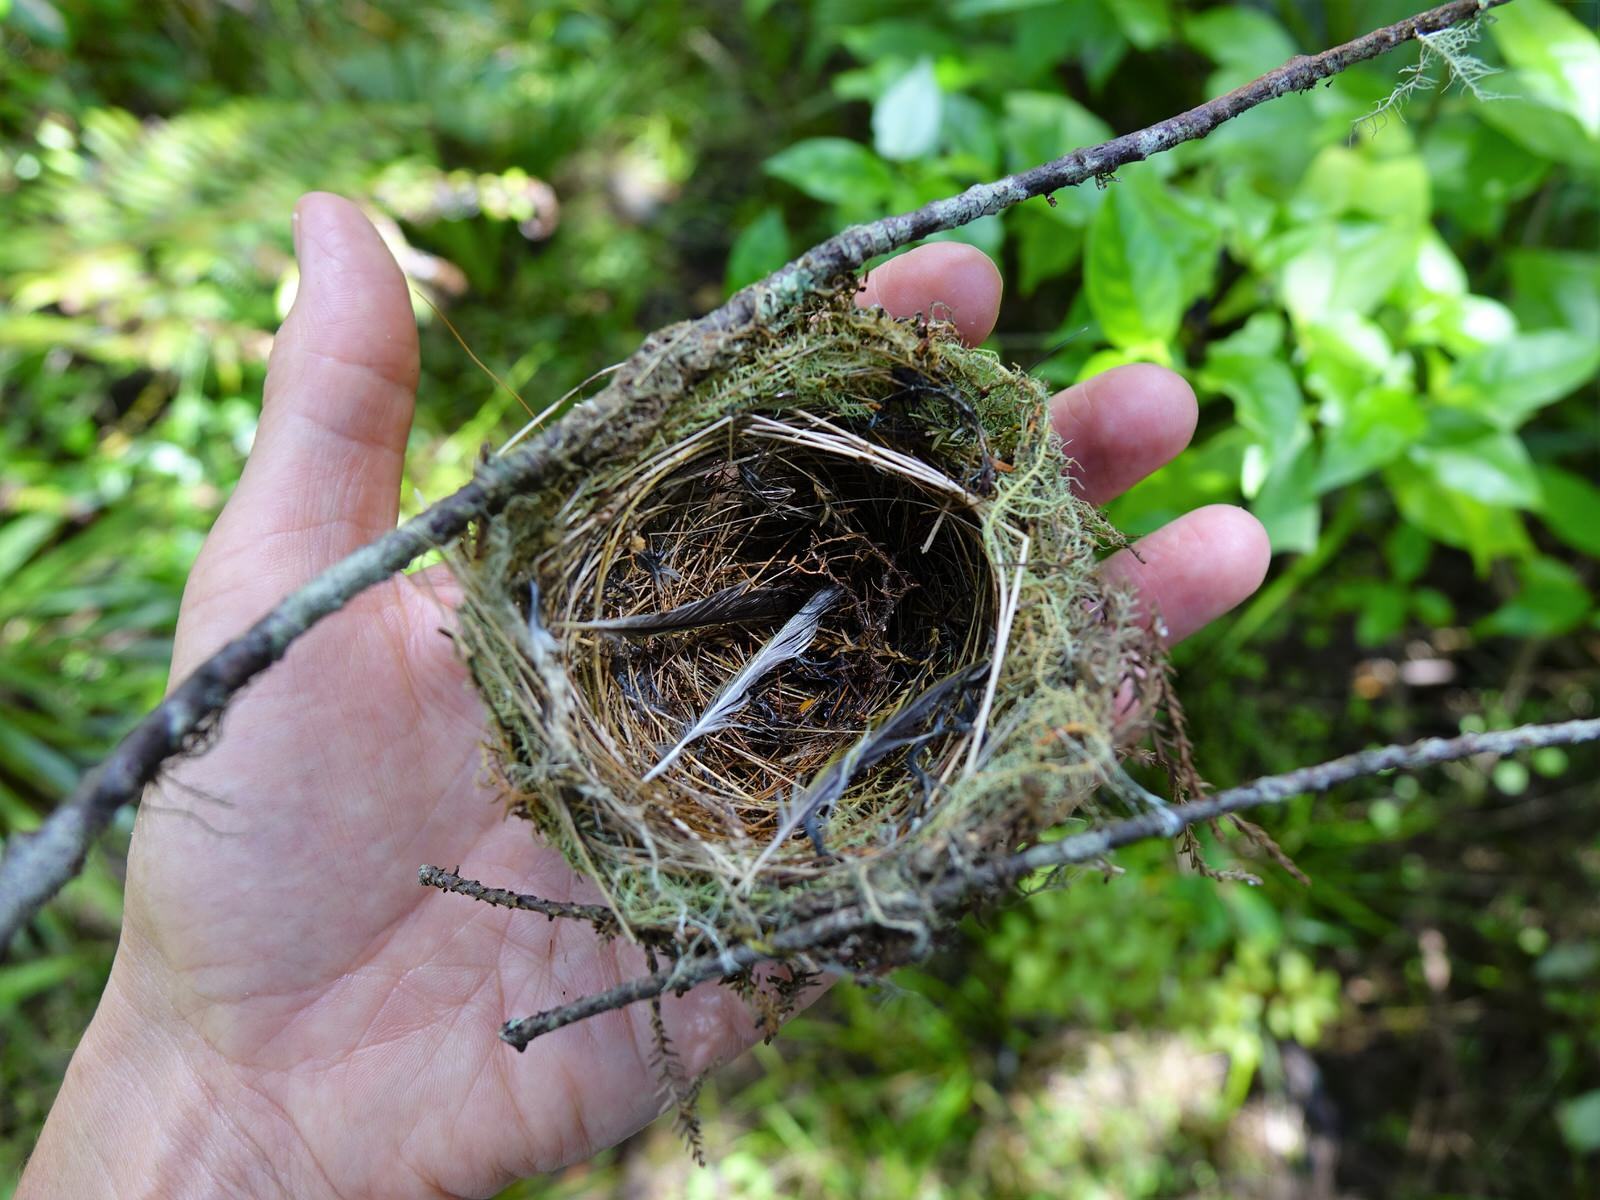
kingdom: Animalia
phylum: Chordata
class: Aves
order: Passeriformes
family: Rhipiduridae
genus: Rhipidura
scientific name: Rhipidura fuliginosa
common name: New zealand fantail
